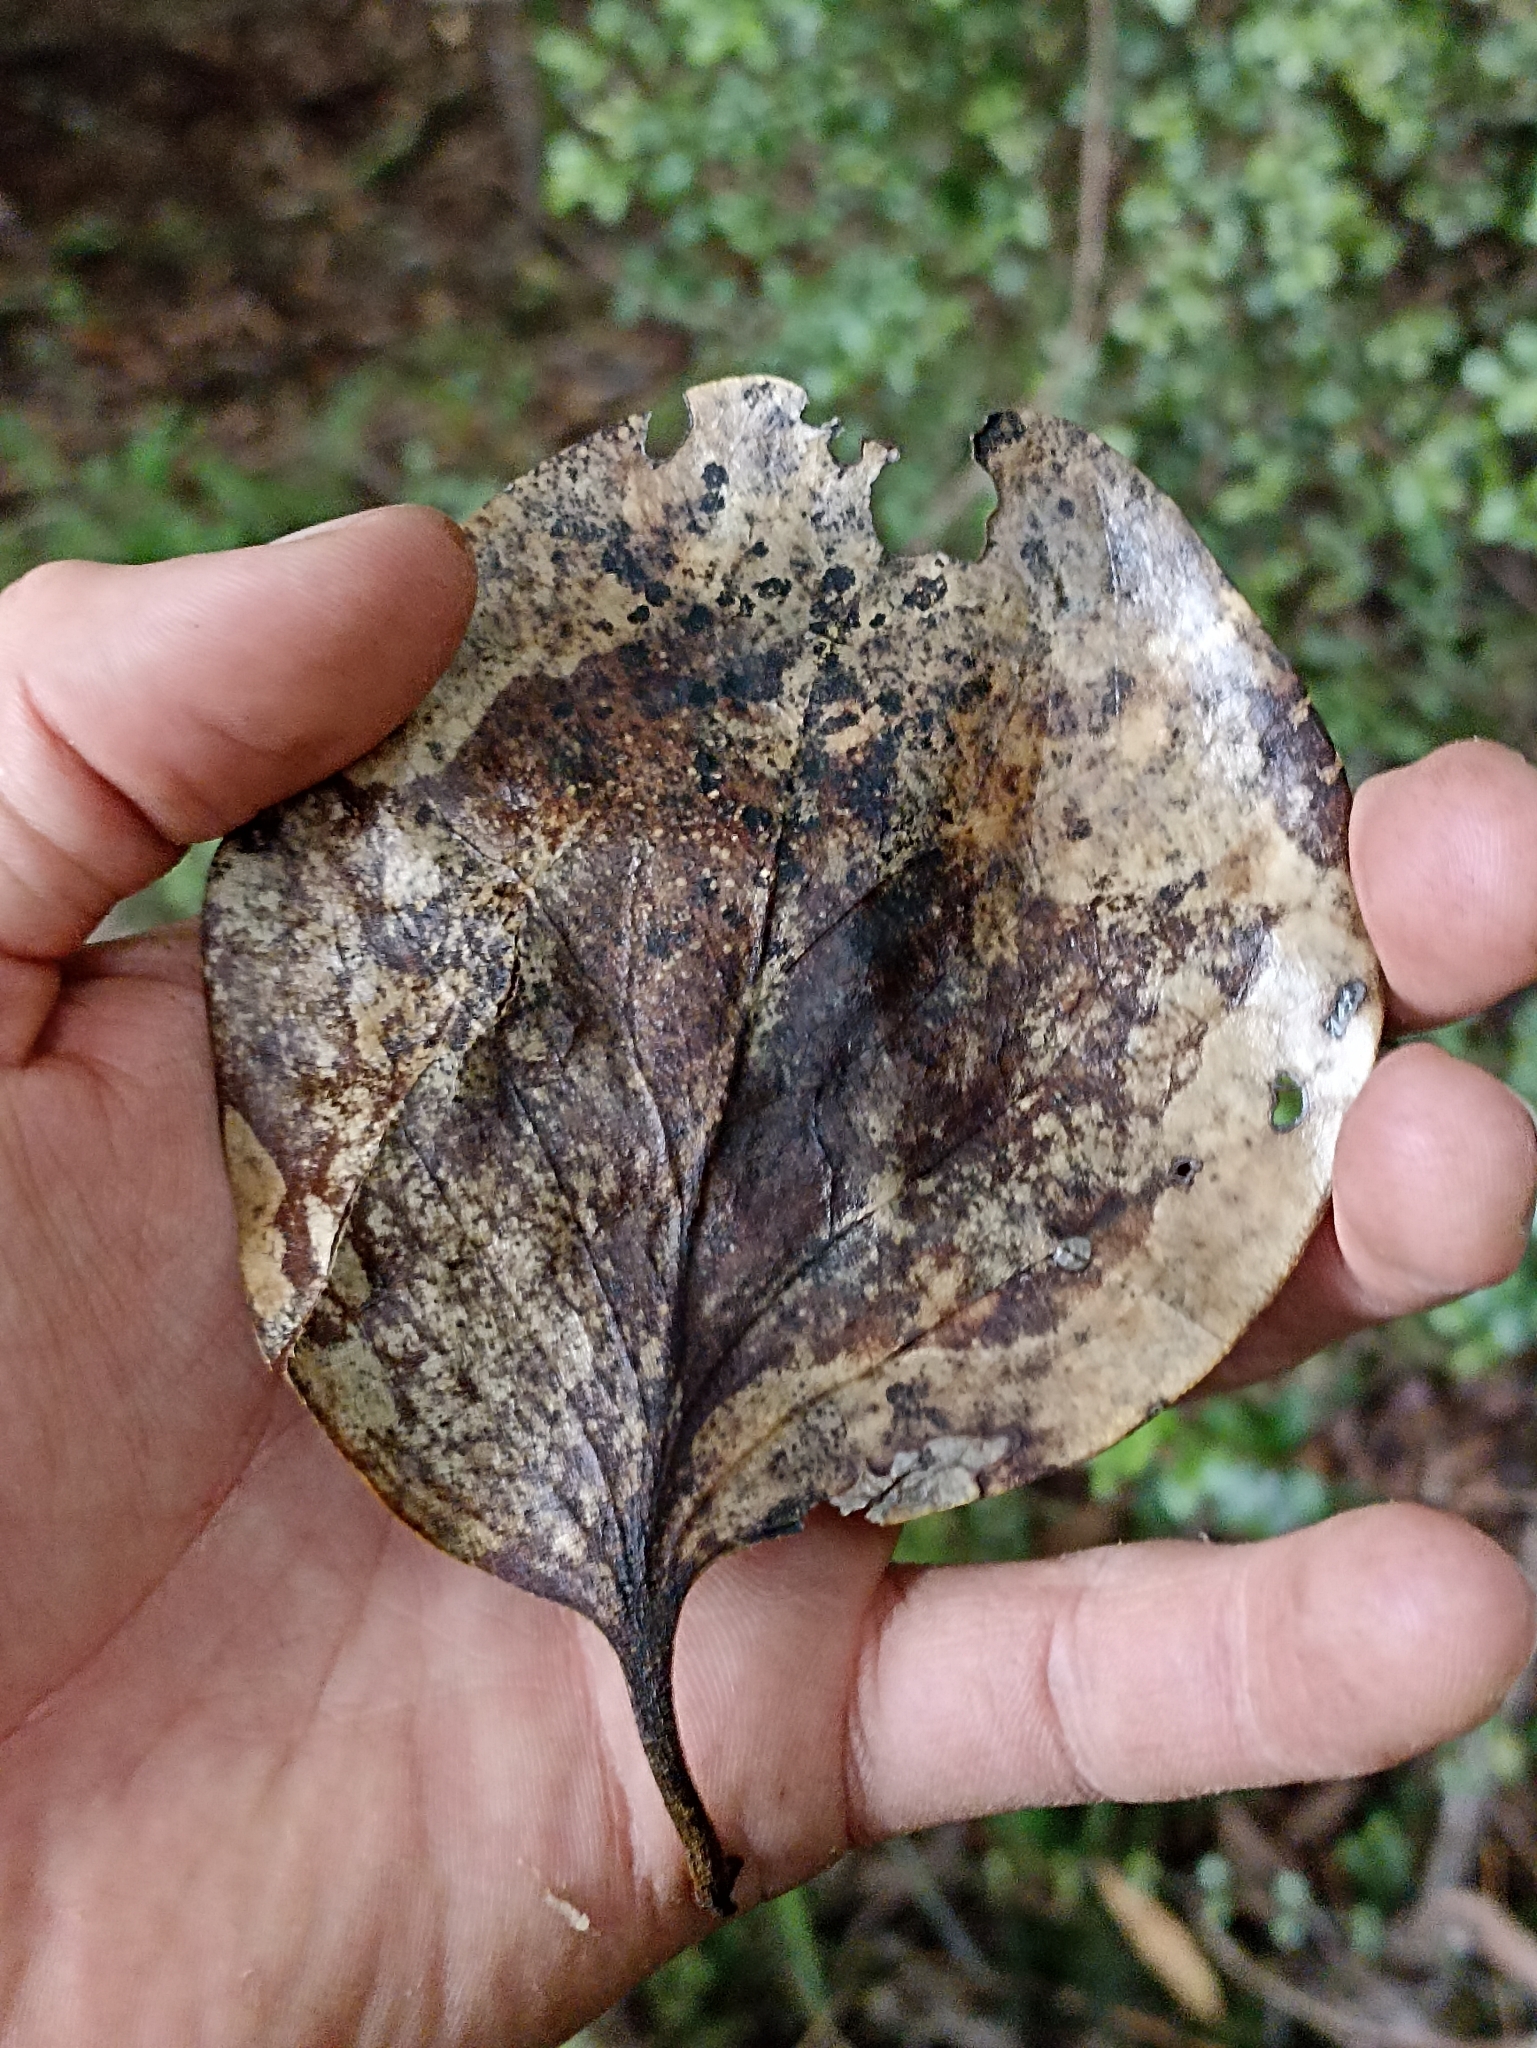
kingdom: Plantae
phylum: Tracheophyta
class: Magnoliopsida
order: Apiales
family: Griseliniaceae
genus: Griselinia
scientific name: Griselinia lucida
